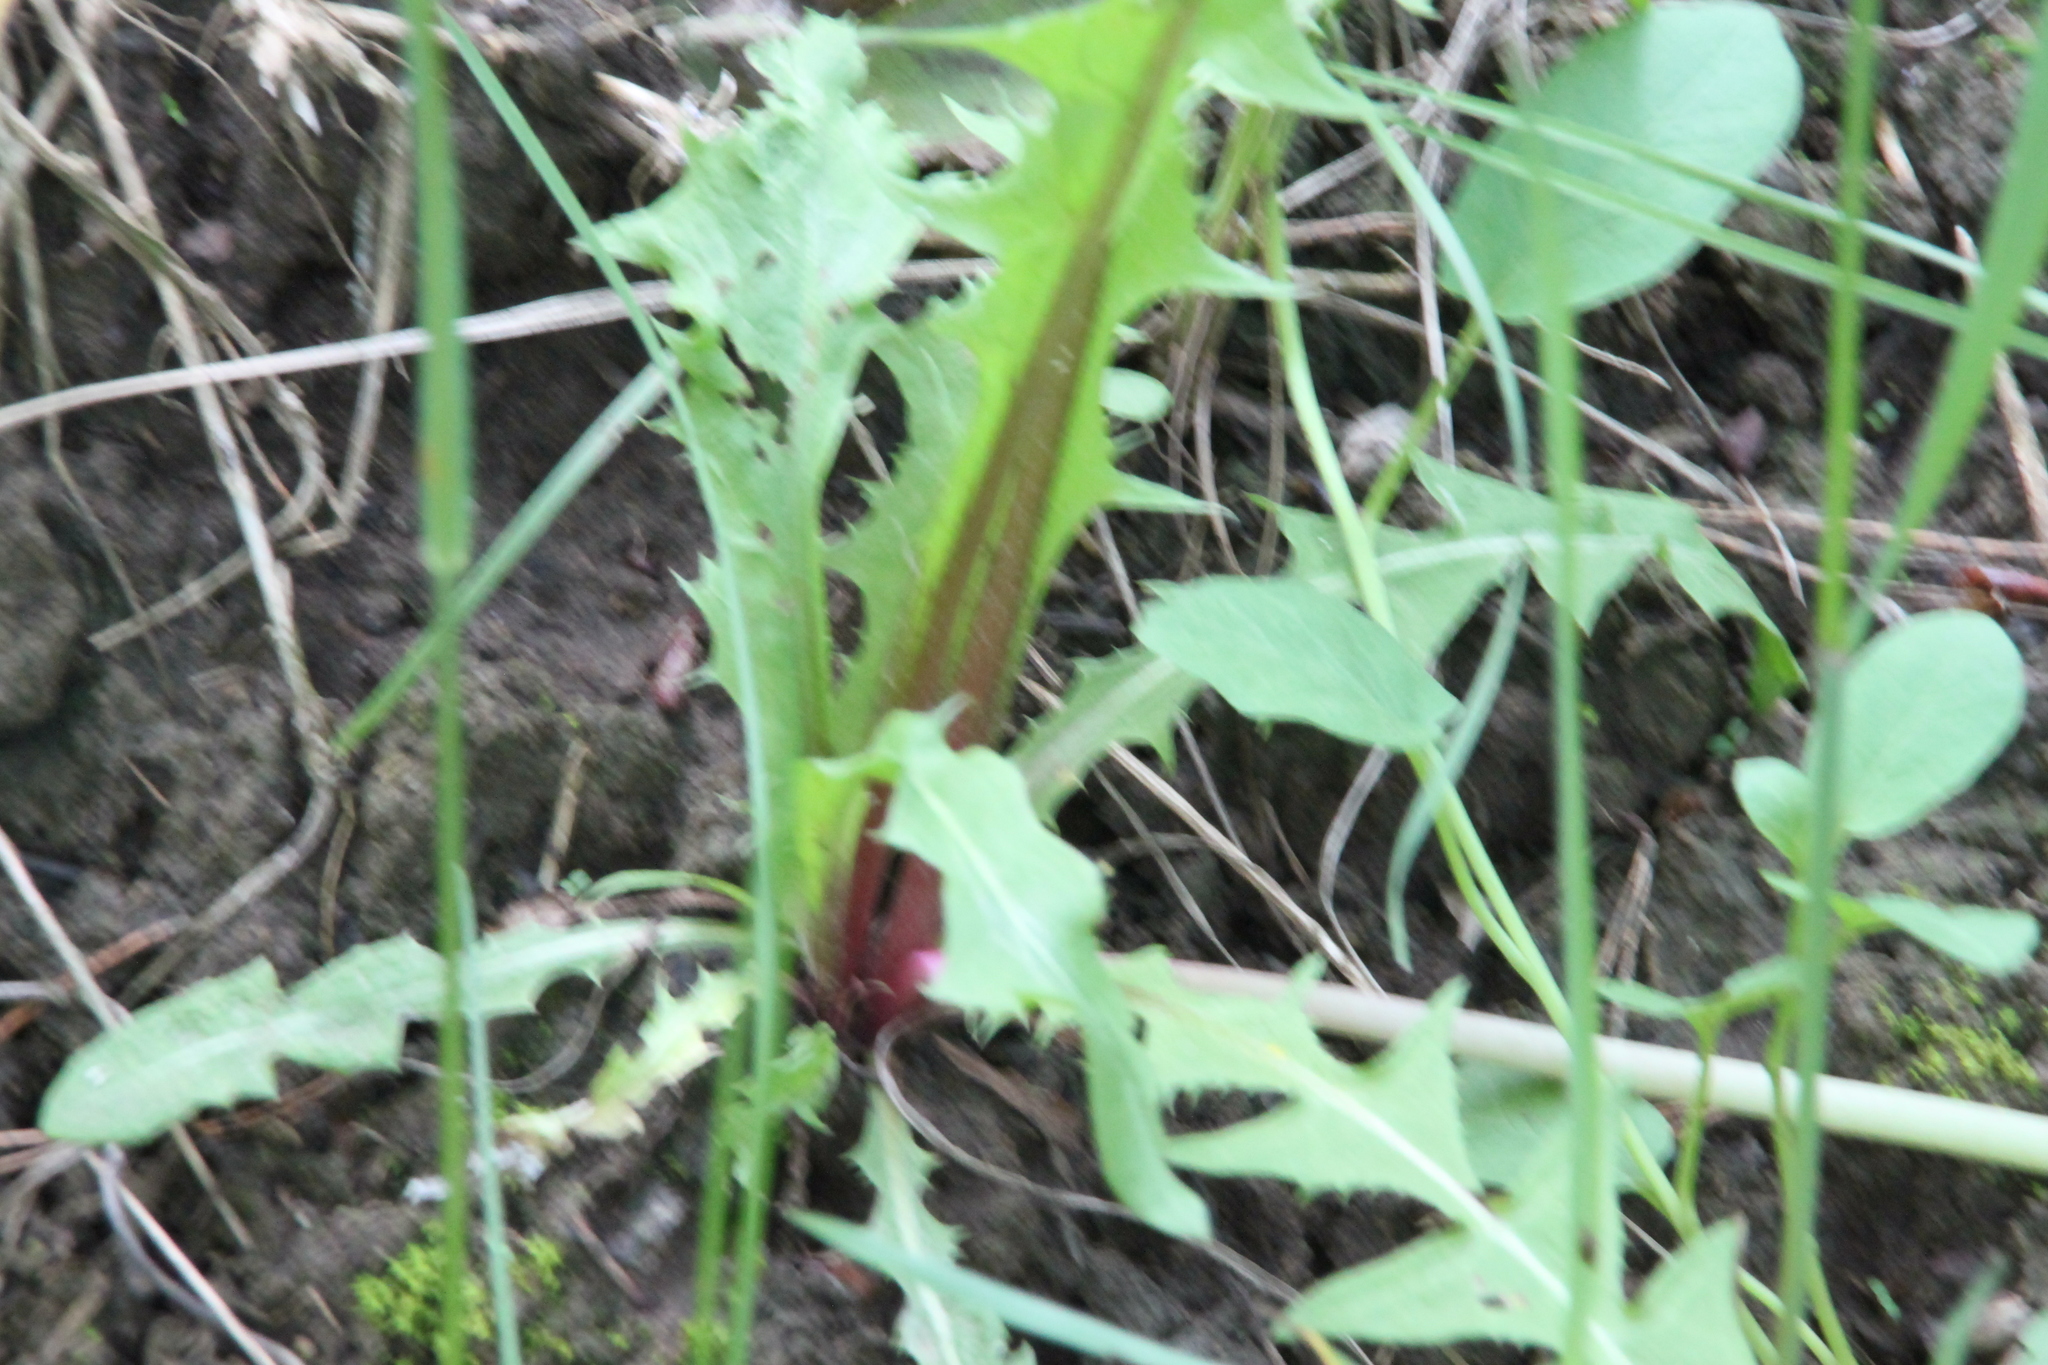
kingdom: Plantae
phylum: Tracheophyta
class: Magnoliopsida
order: Asterales
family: Asteraceae
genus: Taraxacum
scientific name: Taraxacum officinale
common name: Common dandelion
